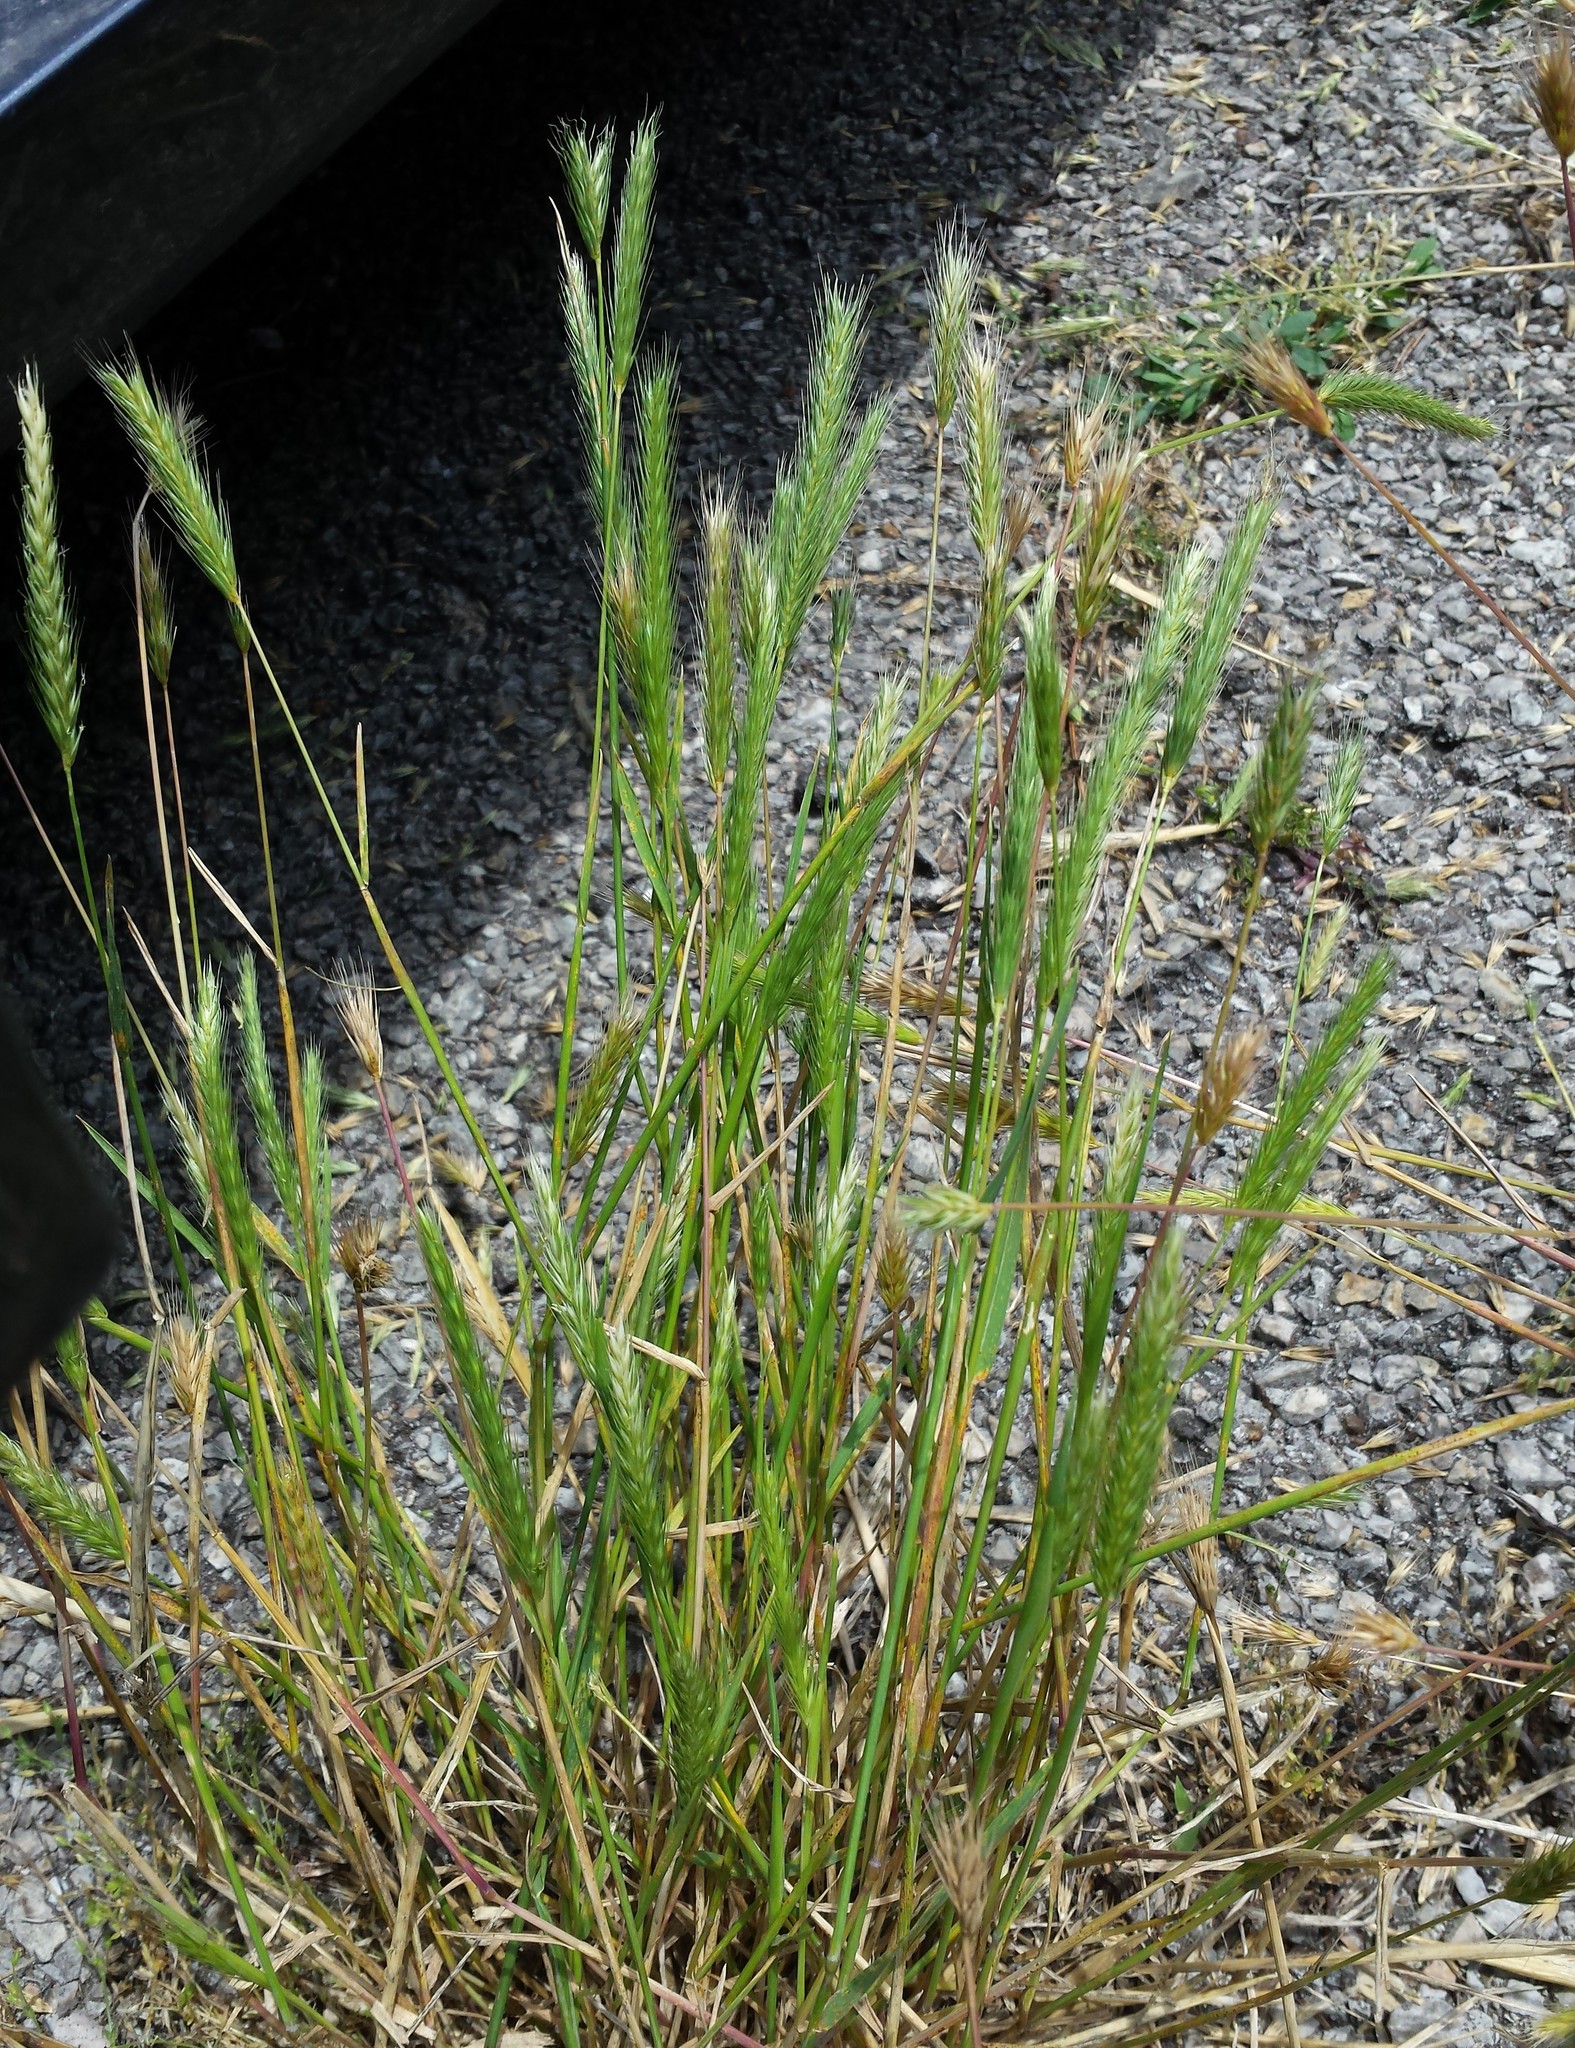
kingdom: Plantae
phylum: Tracheophyta
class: Liliopsida
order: Poales
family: Poaceae
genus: Hordeum
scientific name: Hordeum pusillum
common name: Little barley
